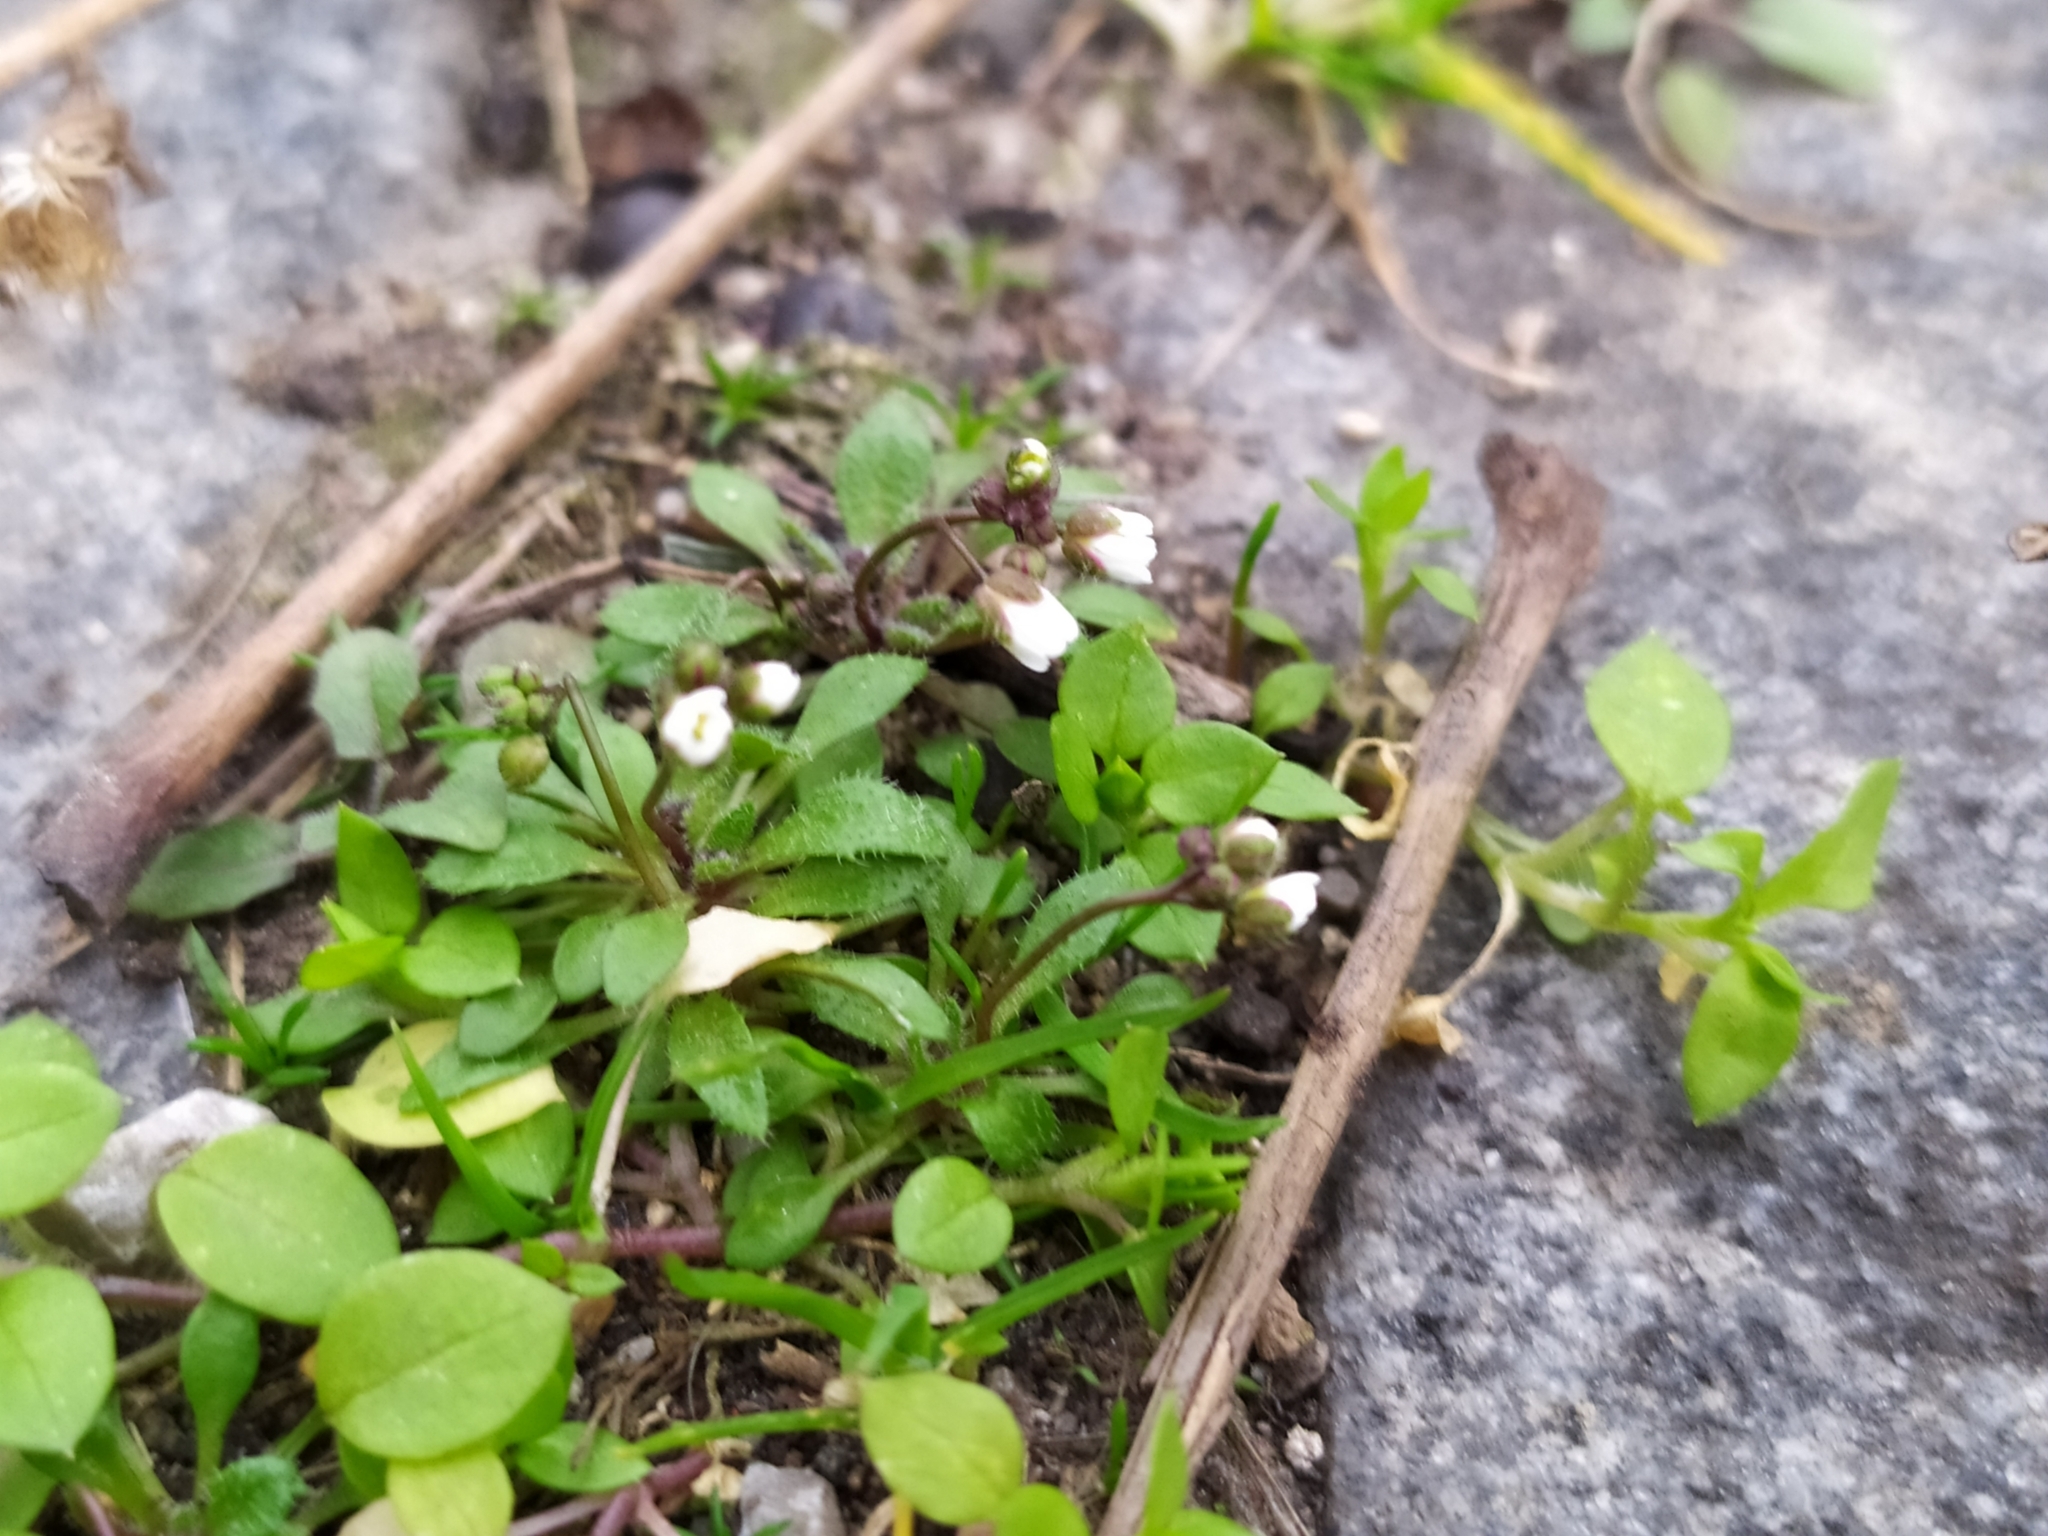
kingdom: Plantae
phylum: Tracheophyta
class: Magnoliopsida
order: Brassicales
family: Brassicaceae
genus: Draba
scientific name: Draba verna
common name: Spring draba
